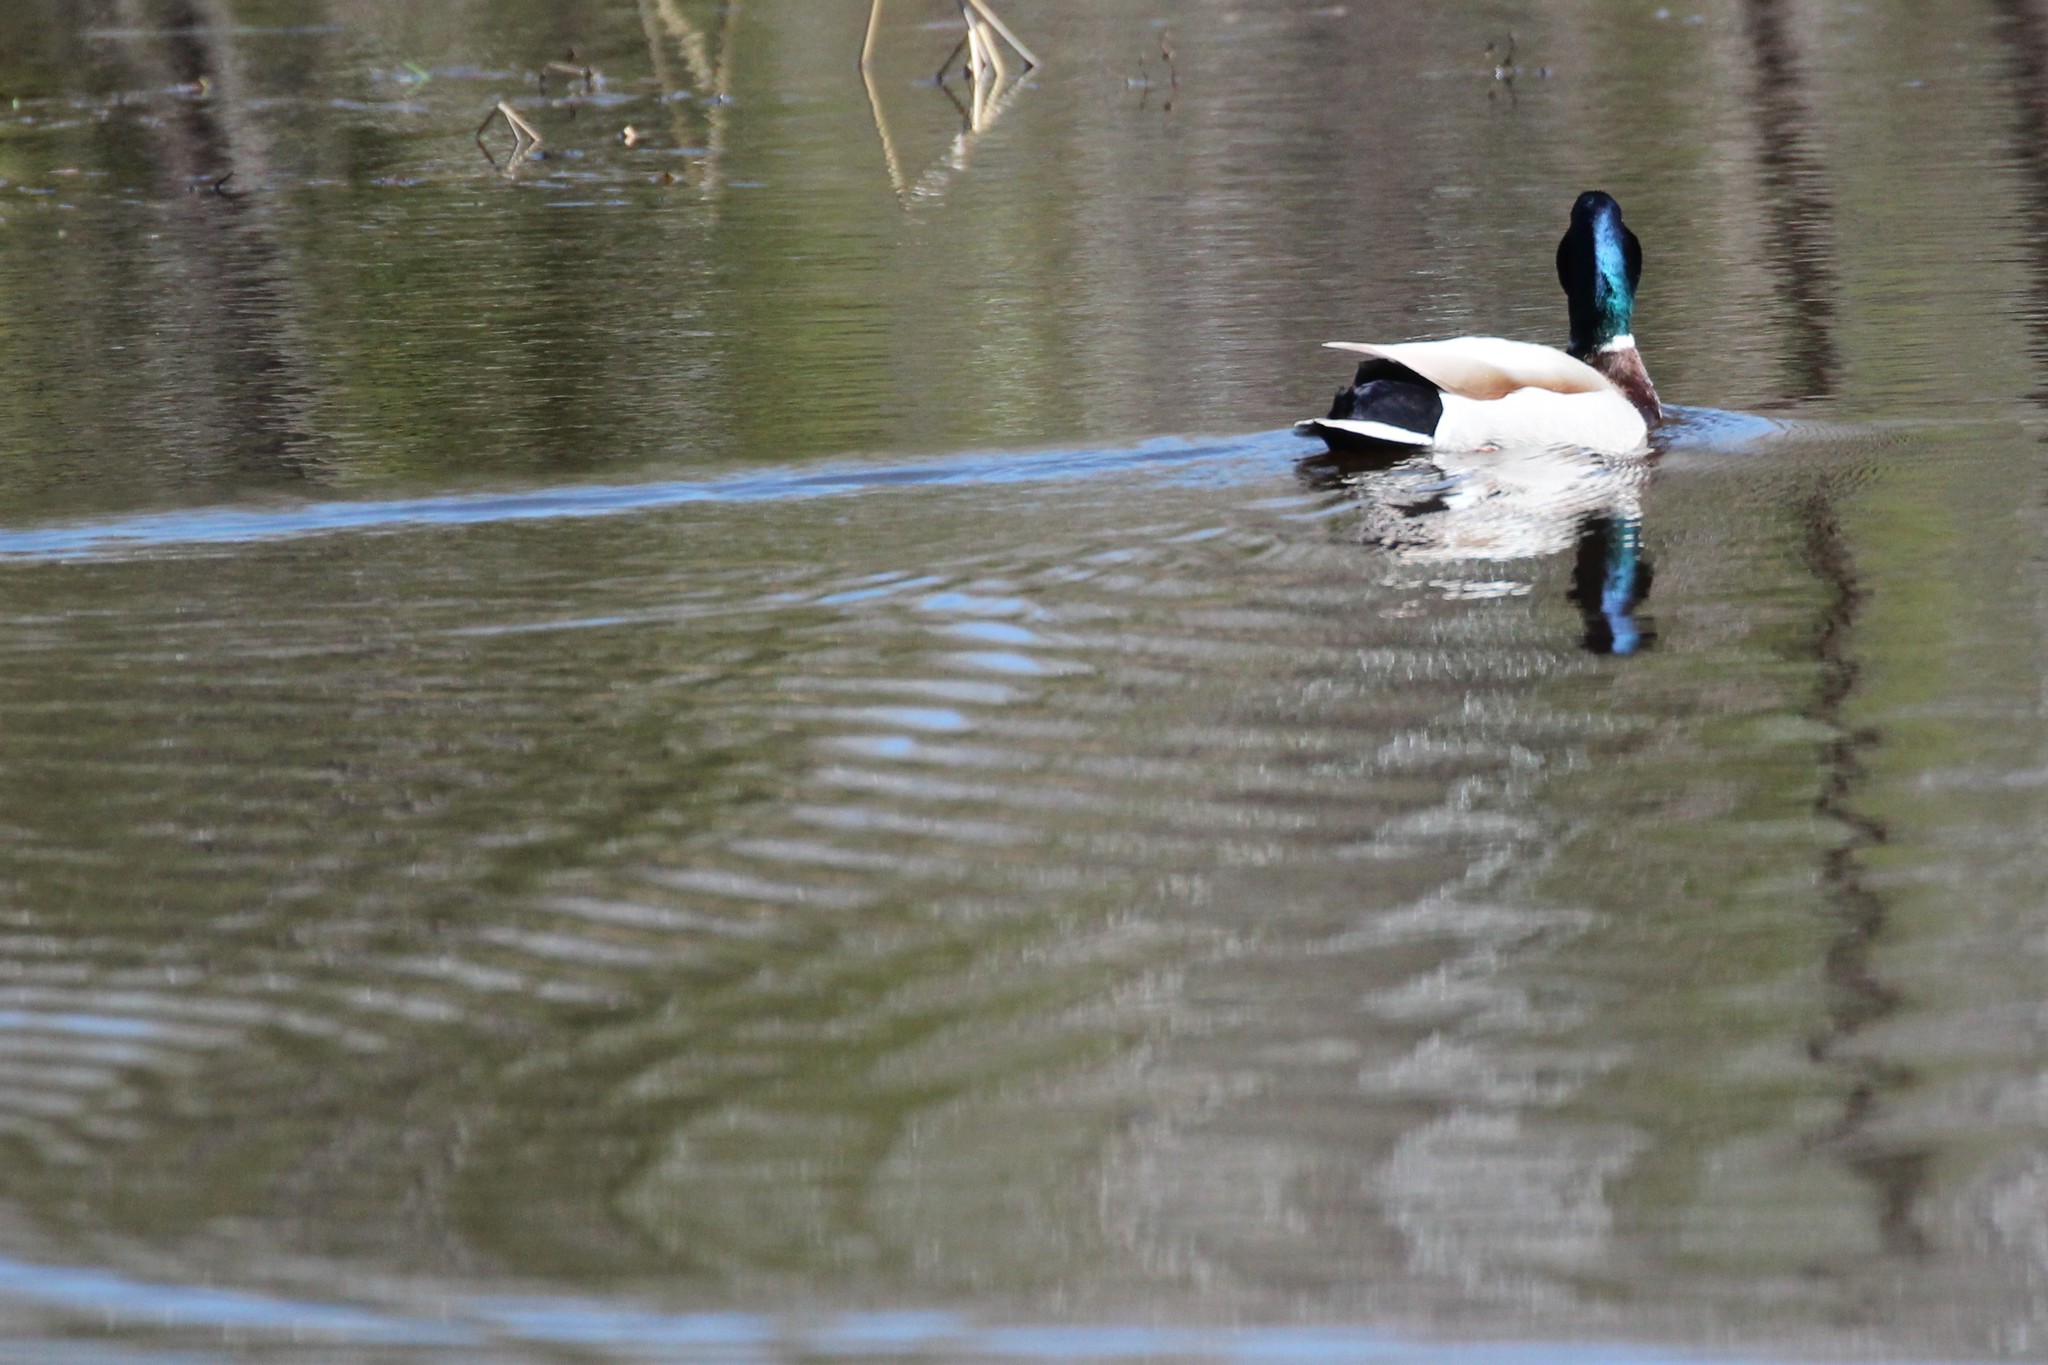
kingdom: Animalia
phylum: Chordata
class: Aves
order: Anseriformes
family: Anatidae
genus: Anas
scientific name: Anas platyrhynchos
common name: Mallard
